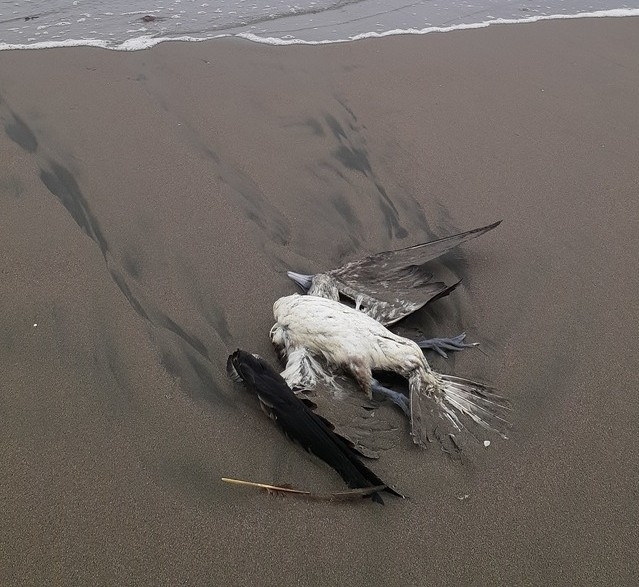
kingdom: Animalia
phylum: Chordata
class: Aves
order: Suliformes
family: Sulidae
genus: Sula
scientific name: Sula variegata
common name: Peruvian booby
